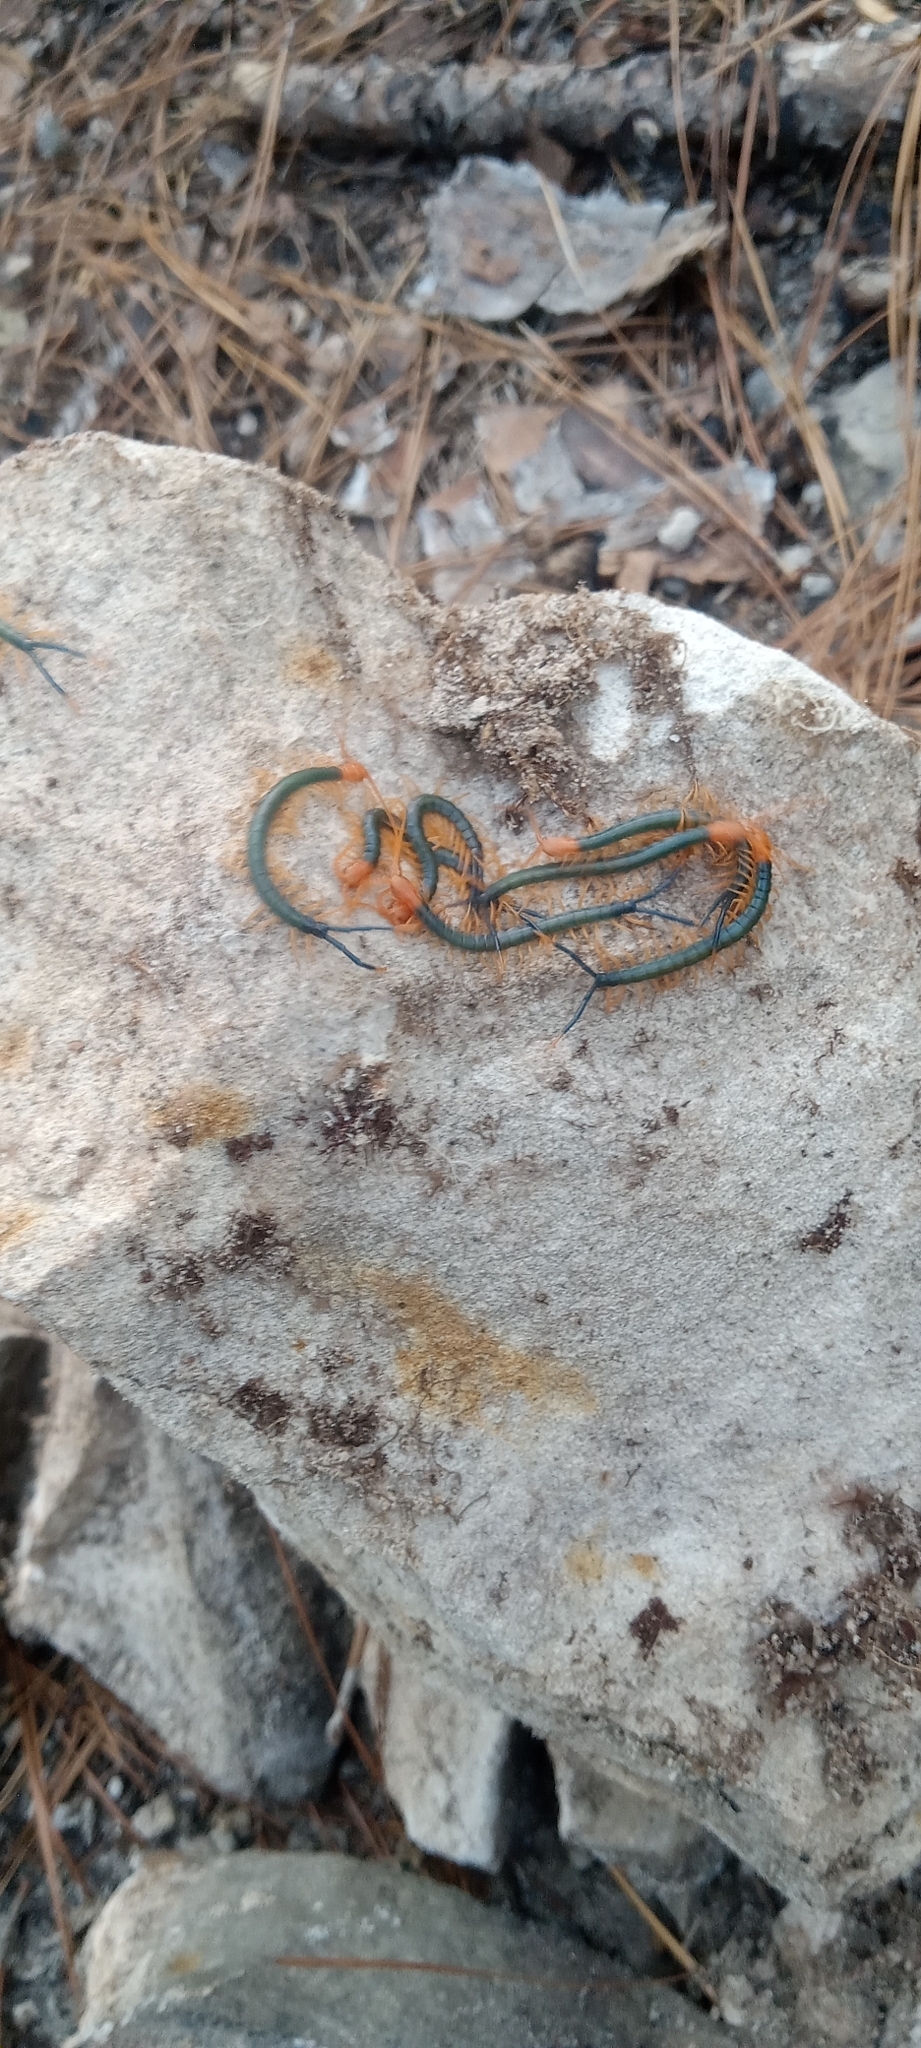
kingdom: Animalia
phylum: Arthropoda
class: Chilopoda
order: Scolopendromorpha
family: Scolopendridae
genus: Scolopendra
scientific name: Scolopendra heros
